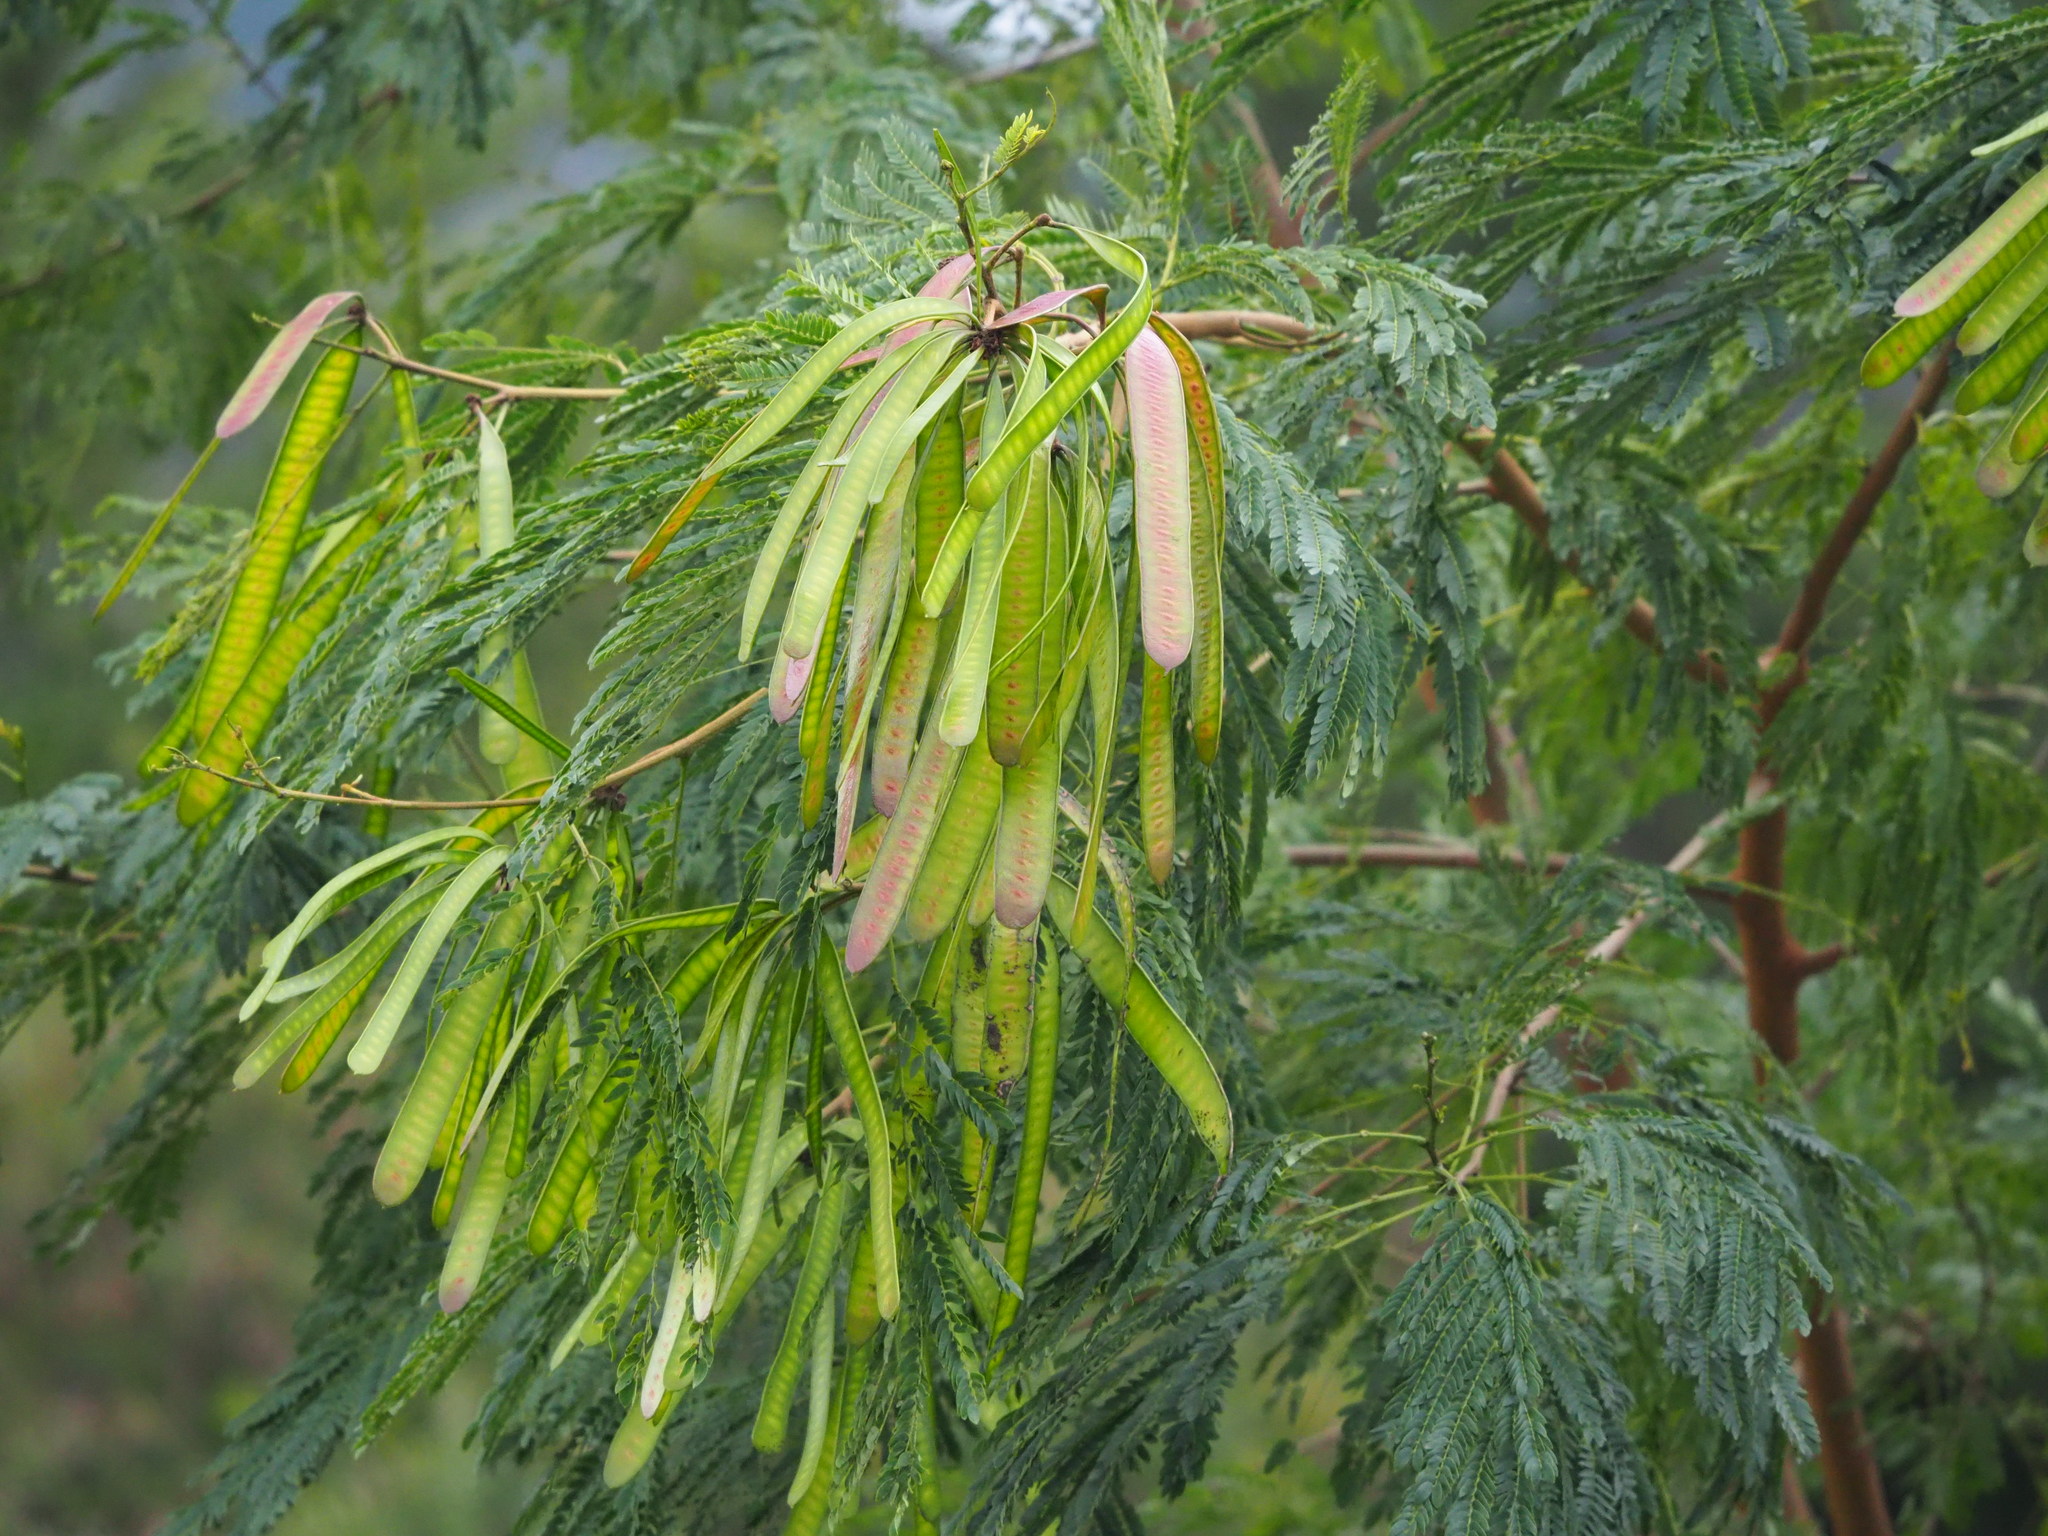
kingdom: Plantae
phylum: Tracheophyta
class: Magnoliopsida
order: Fabales
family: Fabaceae
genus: Leucaena
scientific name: Leucaena leucocephala
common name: White leadtree
